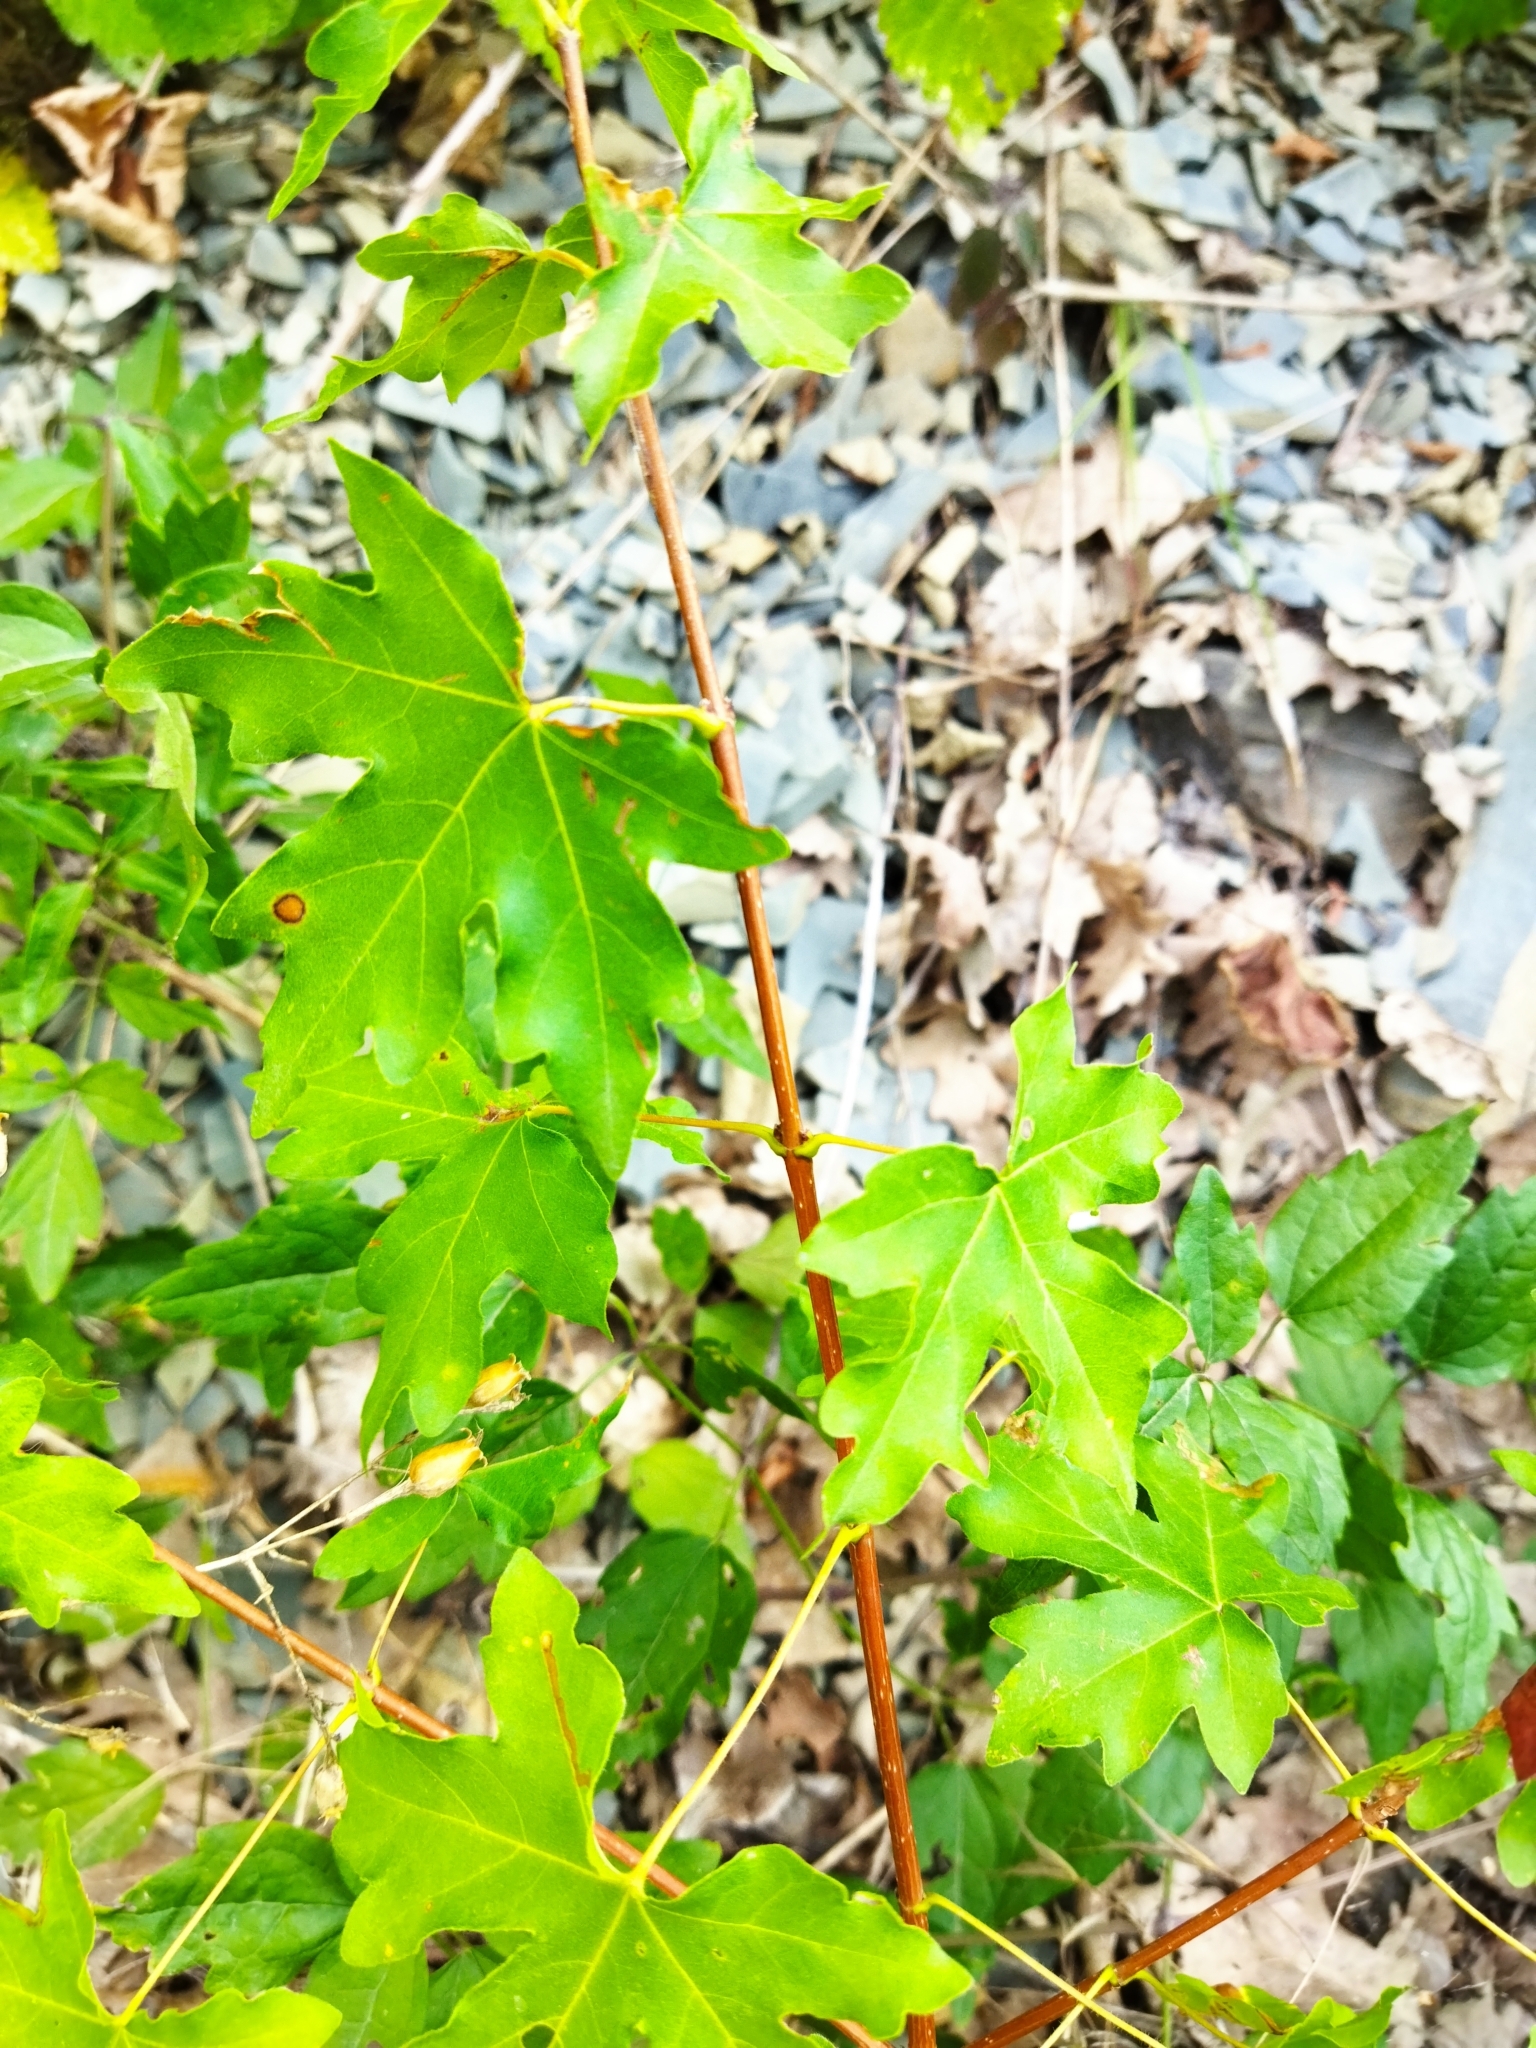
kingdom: Plantae
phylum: Tracheophyta
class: Magnoliopsida
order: Sapindales
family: Sapindaceae
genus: Acer
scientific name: Acer campestre
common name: Field maple
